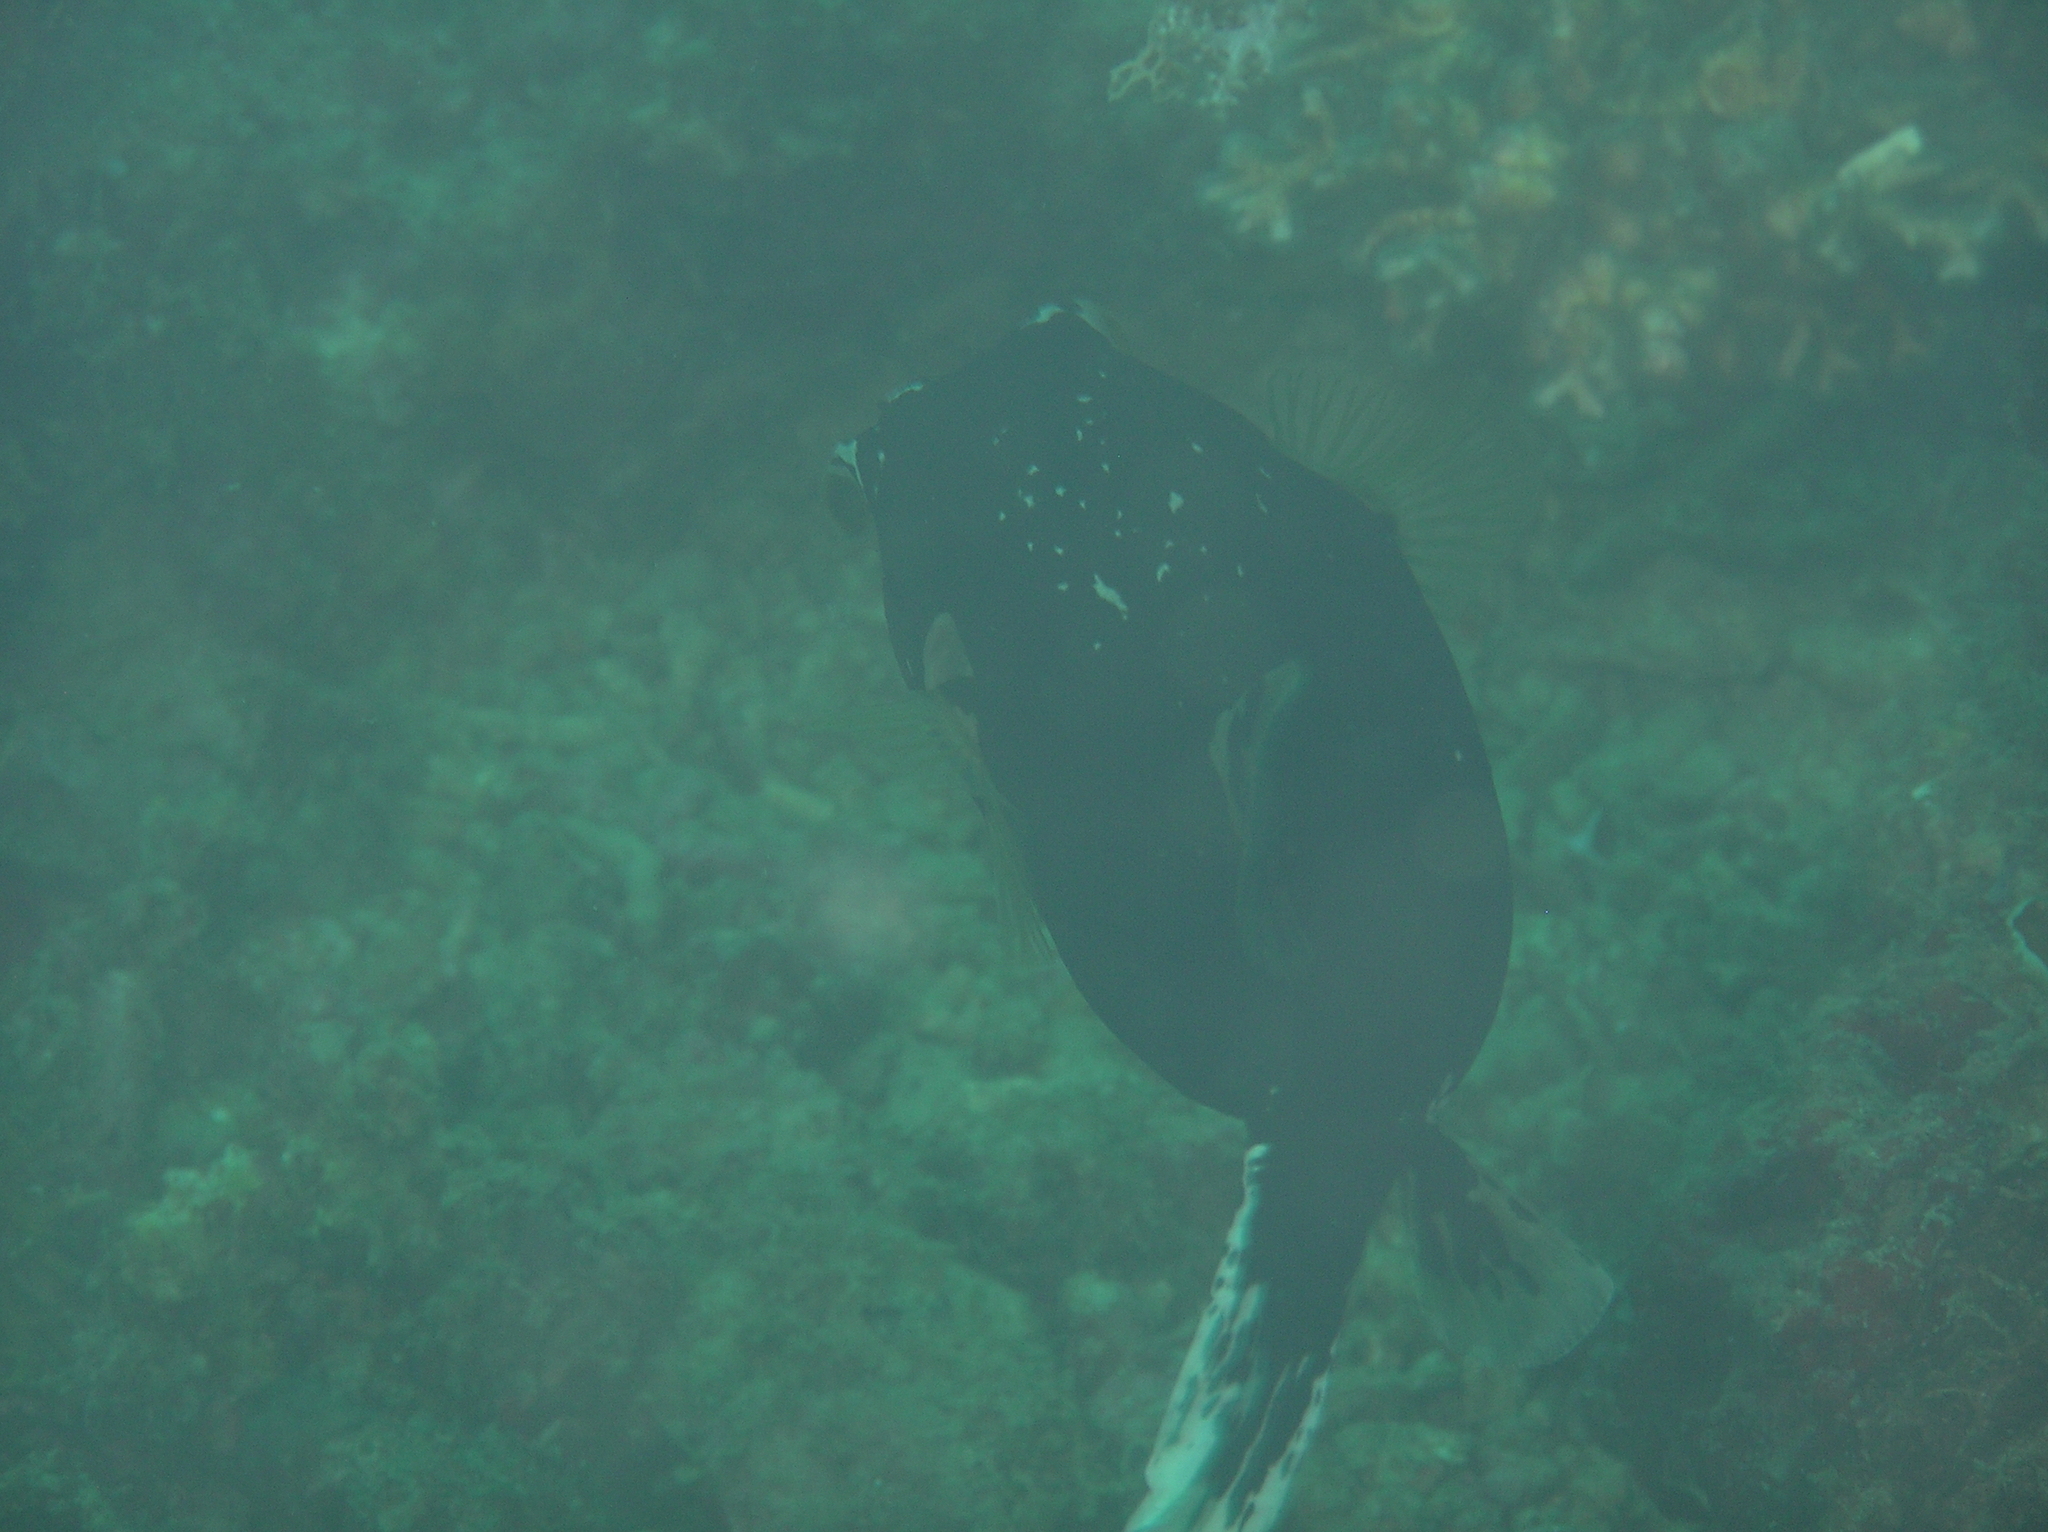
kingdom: Animalia
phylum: Chordata
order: Tetraodontiformes
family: Tetraodontidae
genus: Arothron
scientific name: Arothron nigropunctatus
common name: Black spotted blow fish
